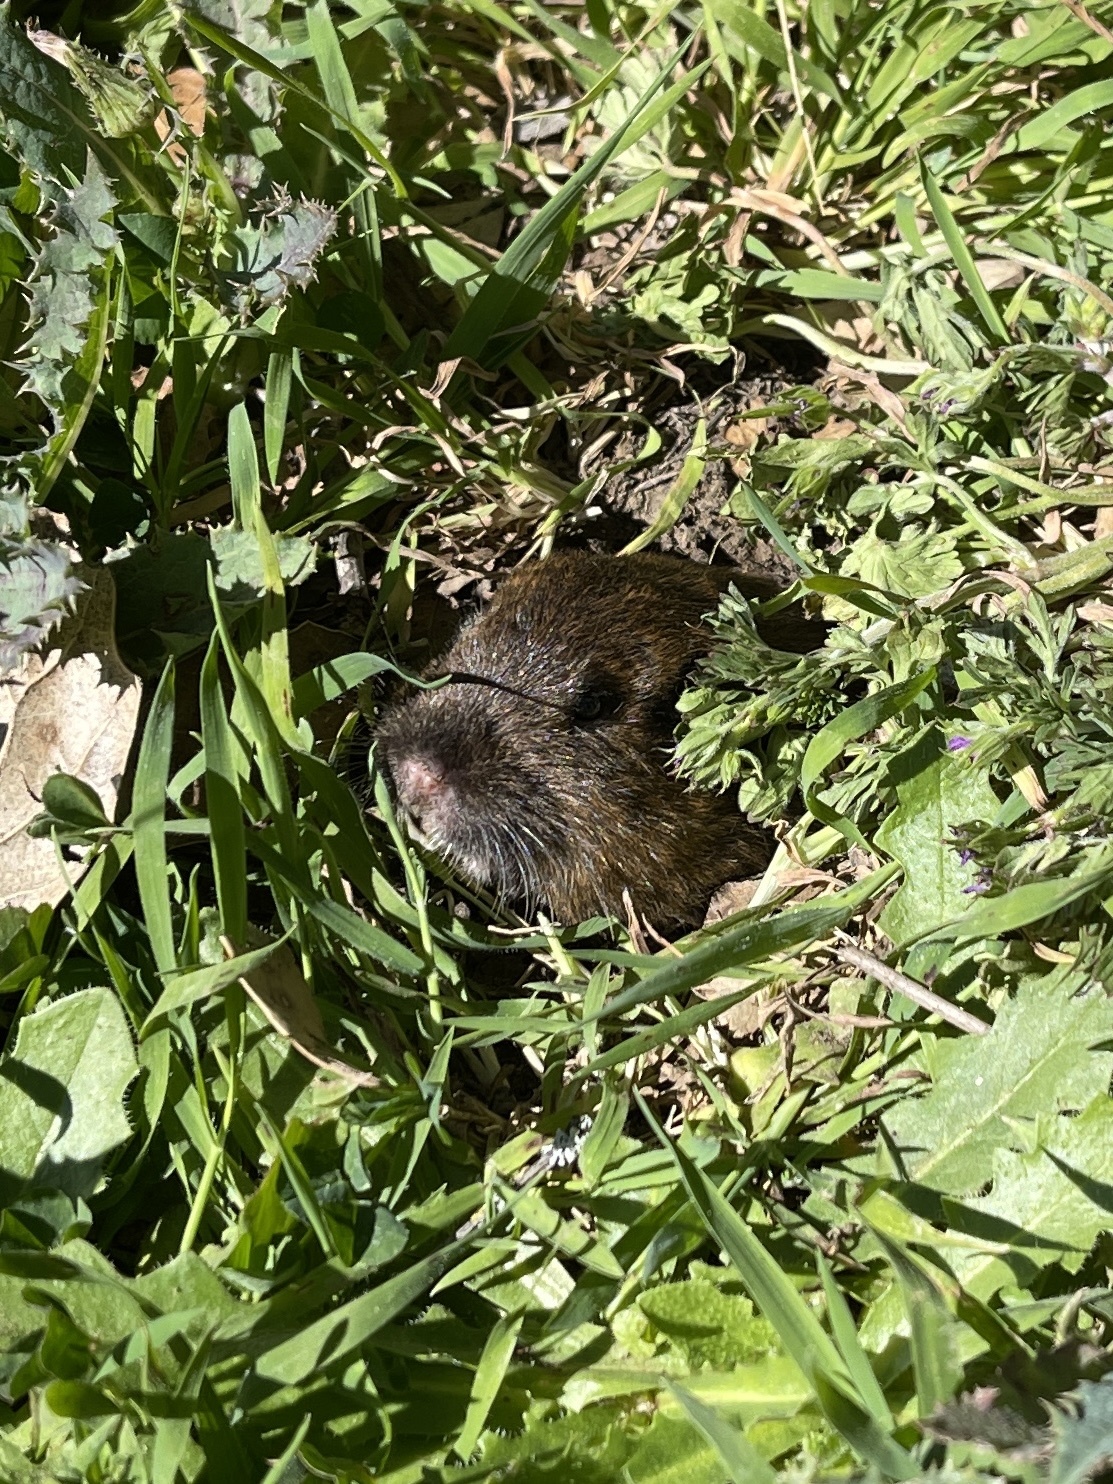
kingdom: Animalia
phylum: Chordata
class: Mammalia
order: Rodentia
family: Geomyidae
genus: Thomomys
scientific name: Thomomys bottae
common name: Botta's pocket gopher
